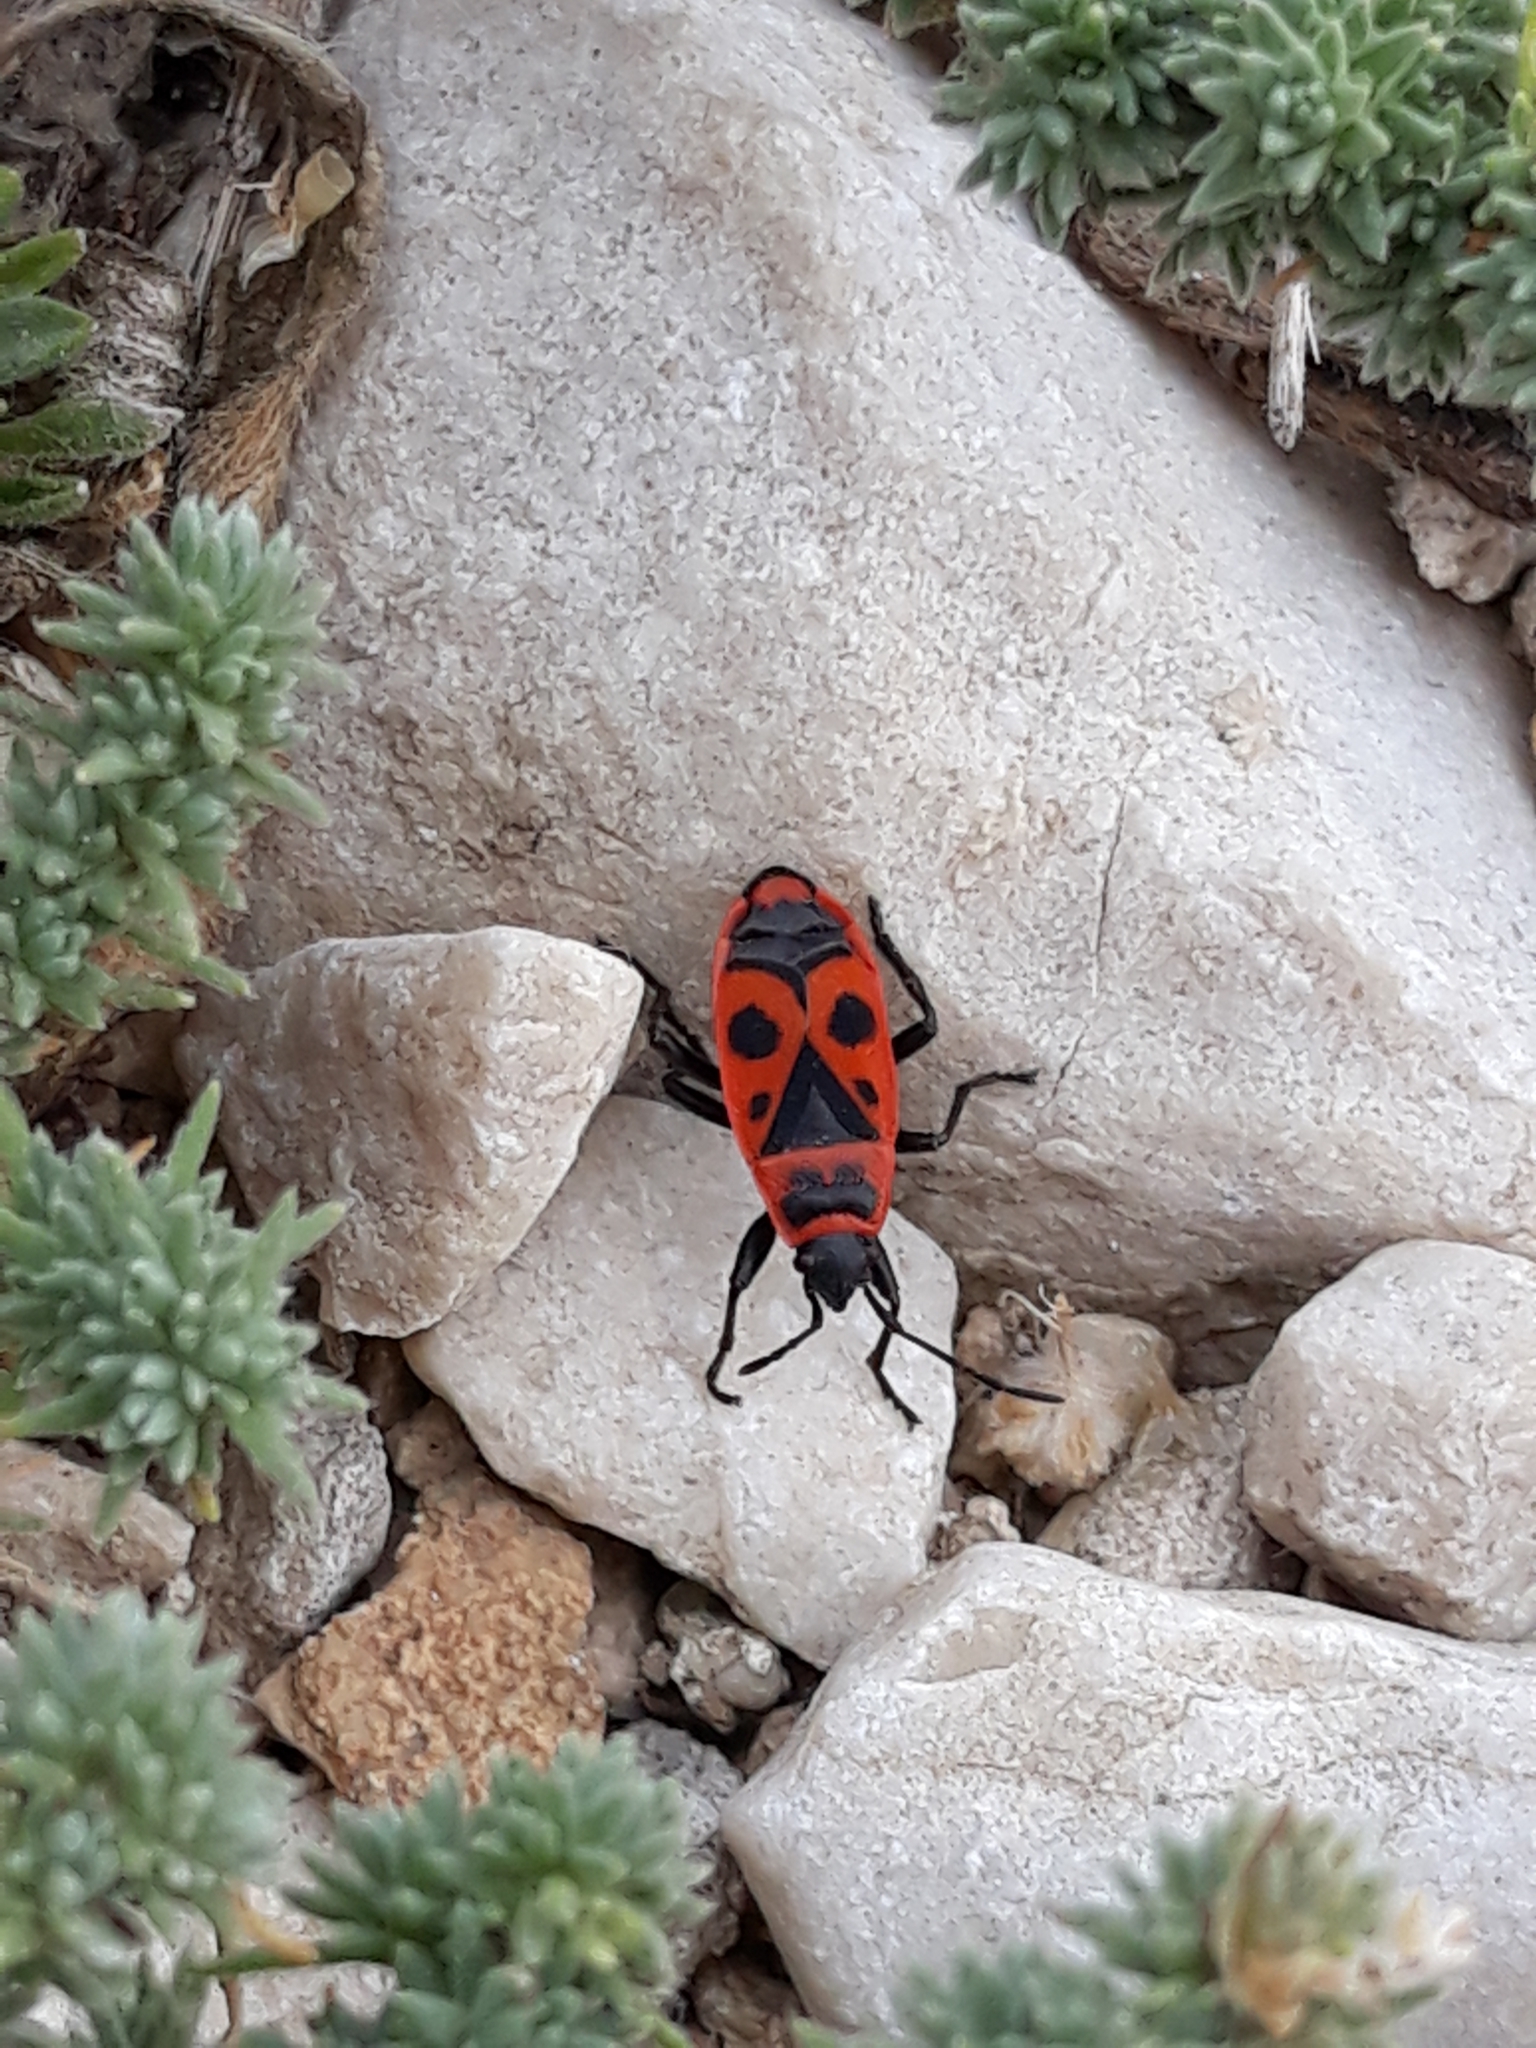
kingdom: Animalia
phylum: Arthropoda
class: Insecta
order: Hemiptera
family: Pyrrhocoridae
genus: Pyrrhocoris
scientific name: Pyrrhocoris apterus
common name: Firebug
